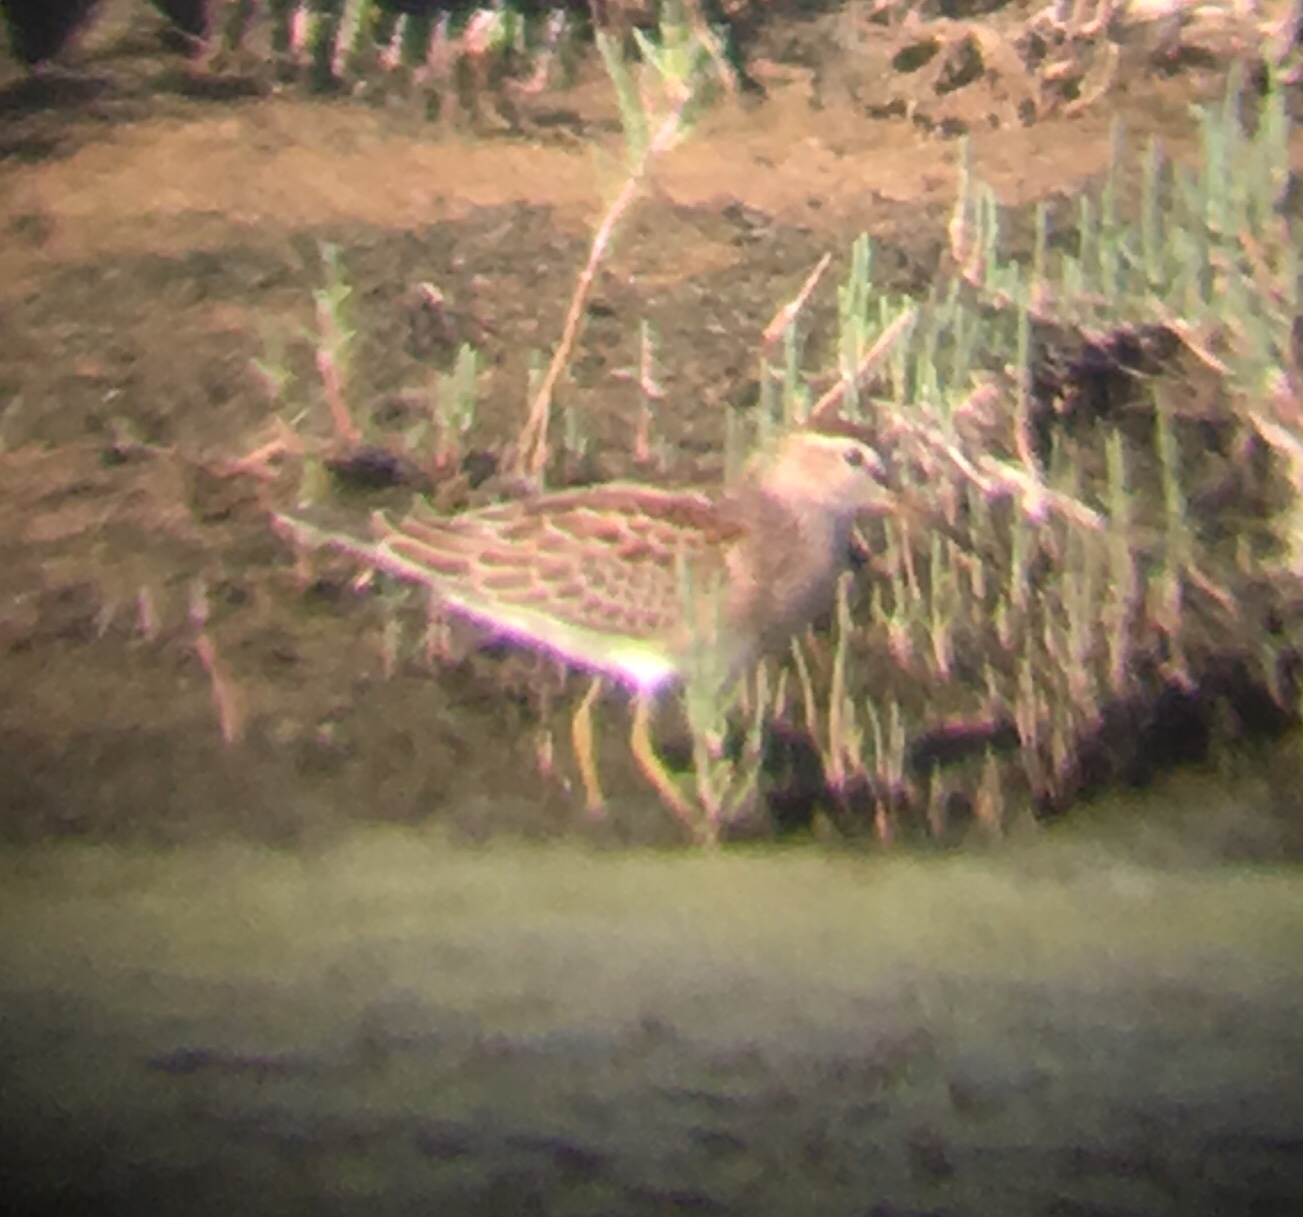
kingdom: Animalia
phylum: Chordata
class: Aves
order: Charadriiformes
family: Scolopacidae
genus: Calidris
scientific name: Calidris melanotos
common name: Pectoral sandpiper
